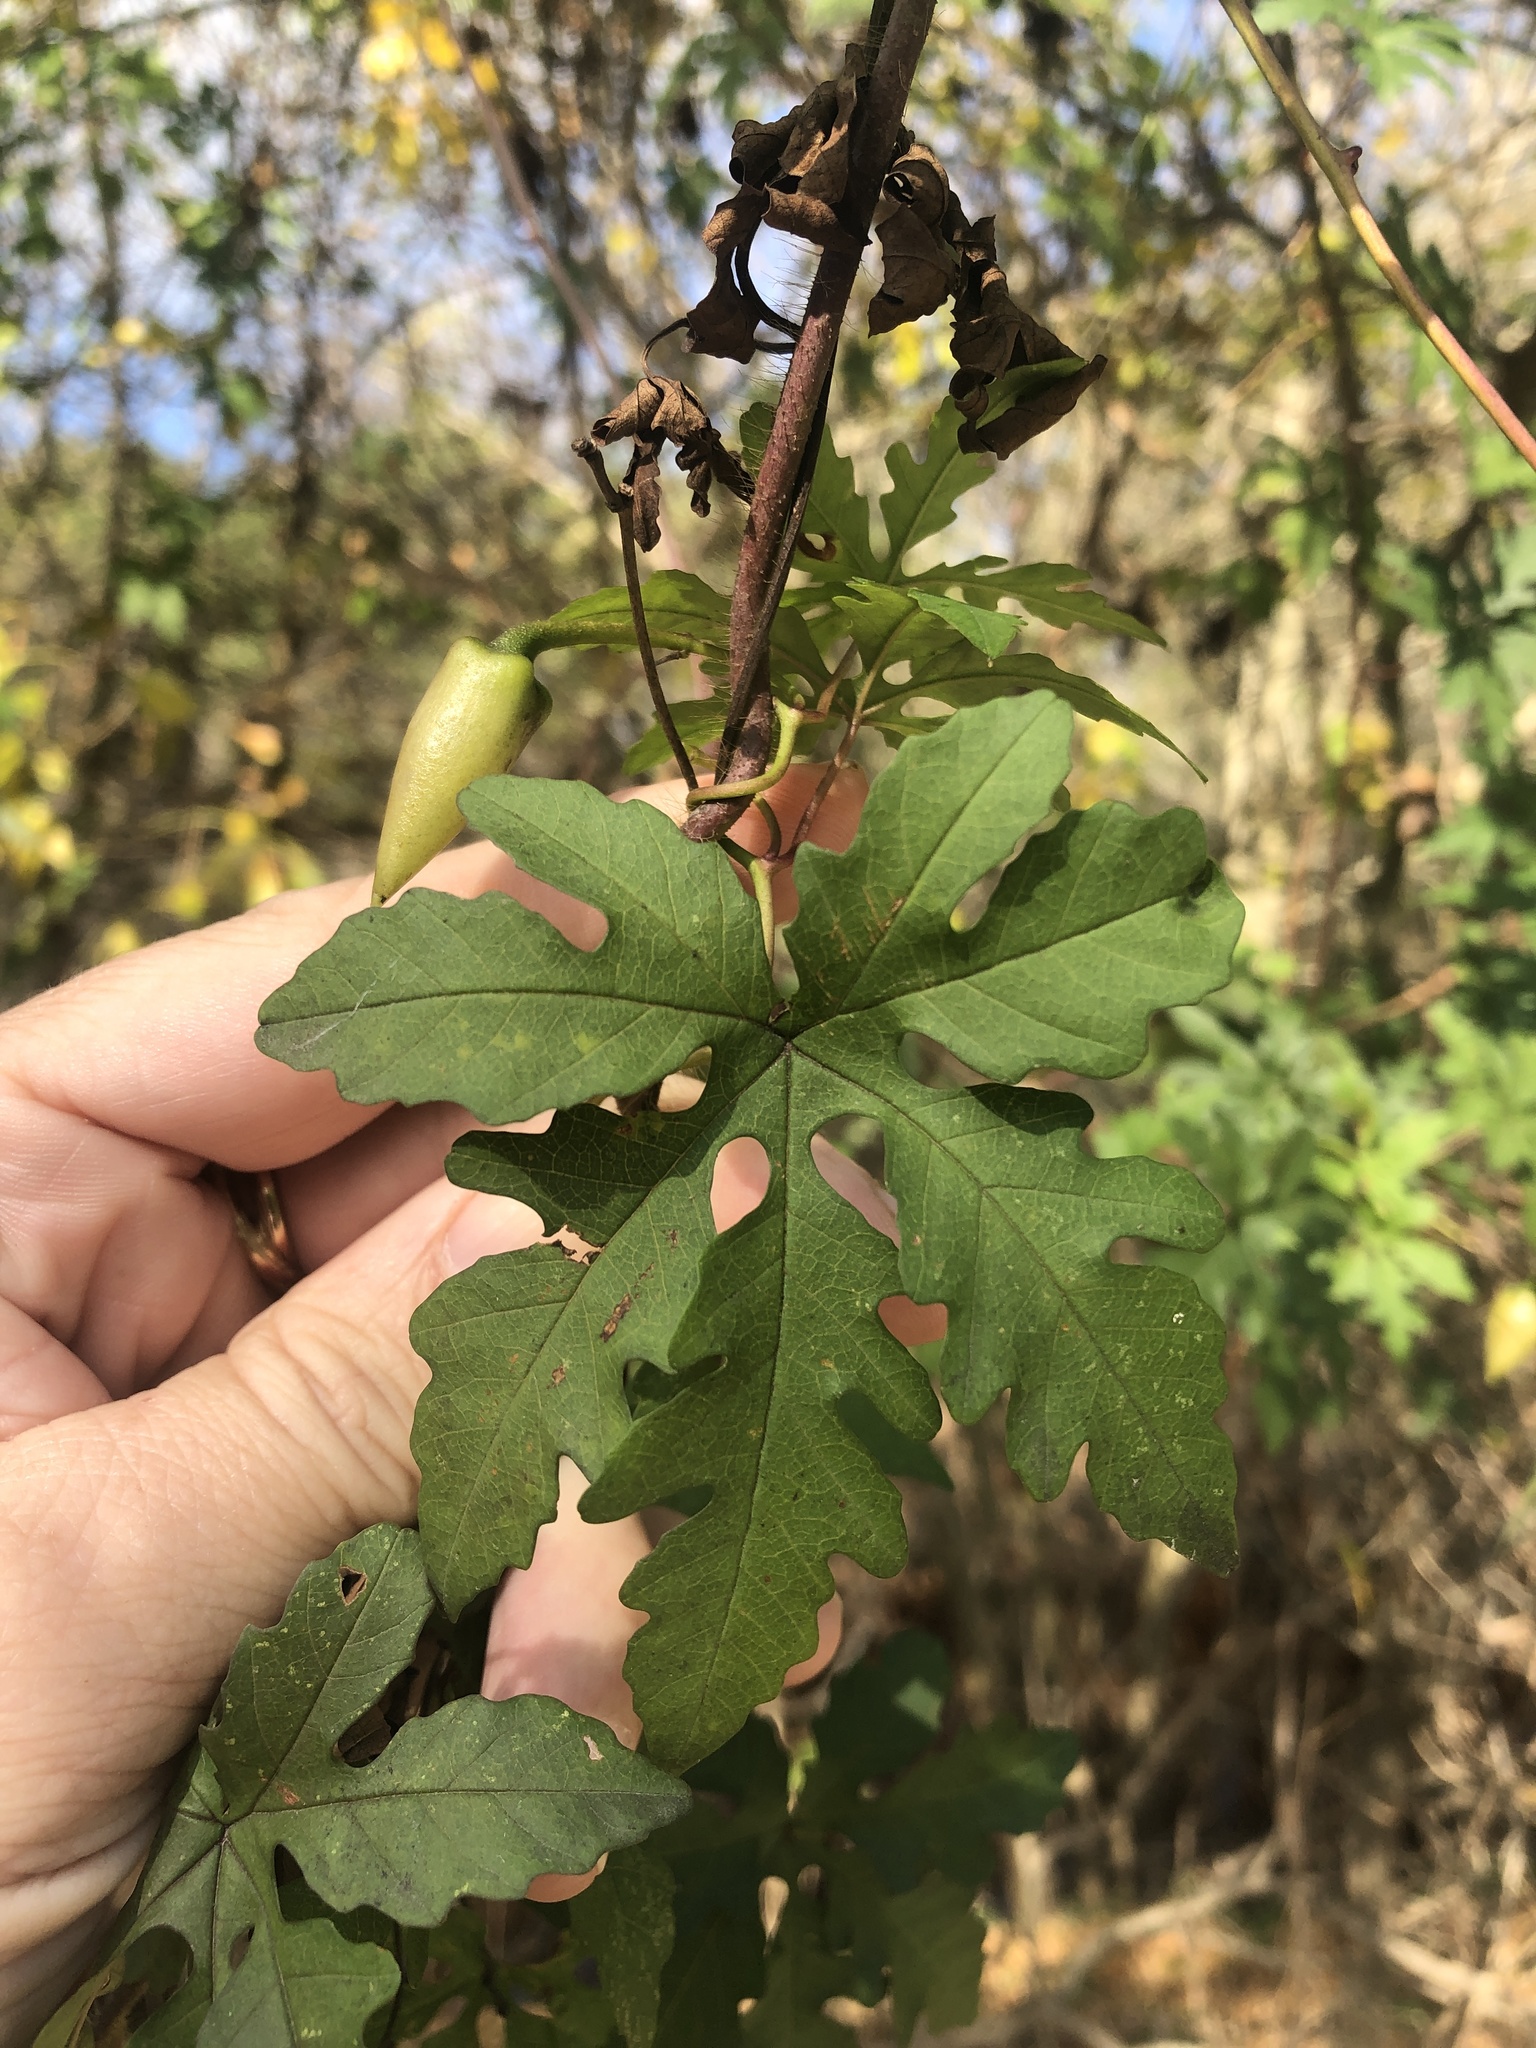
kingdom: Plantae
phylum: Tracheophyta
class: Magnoliopsida
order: Solanales
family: Convolvulaceae
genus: Distimake
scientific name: Distimake dissectus
